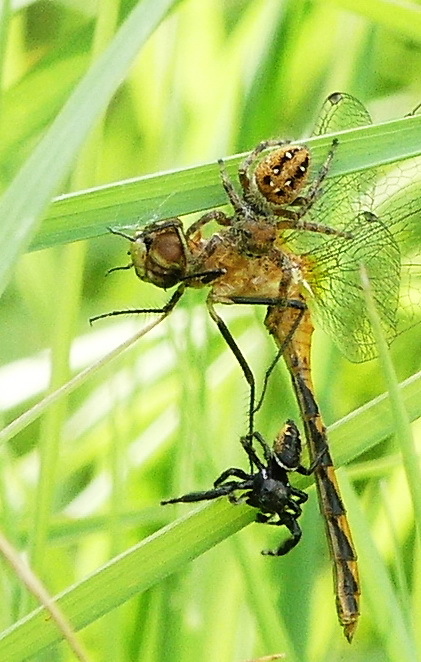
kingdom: Animalia
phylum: Arthropoda
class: Arachnida
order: Araneae
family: Salticidae
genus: Phidippus
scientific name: Phidippus clarus
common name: Brilliant jumping spider
